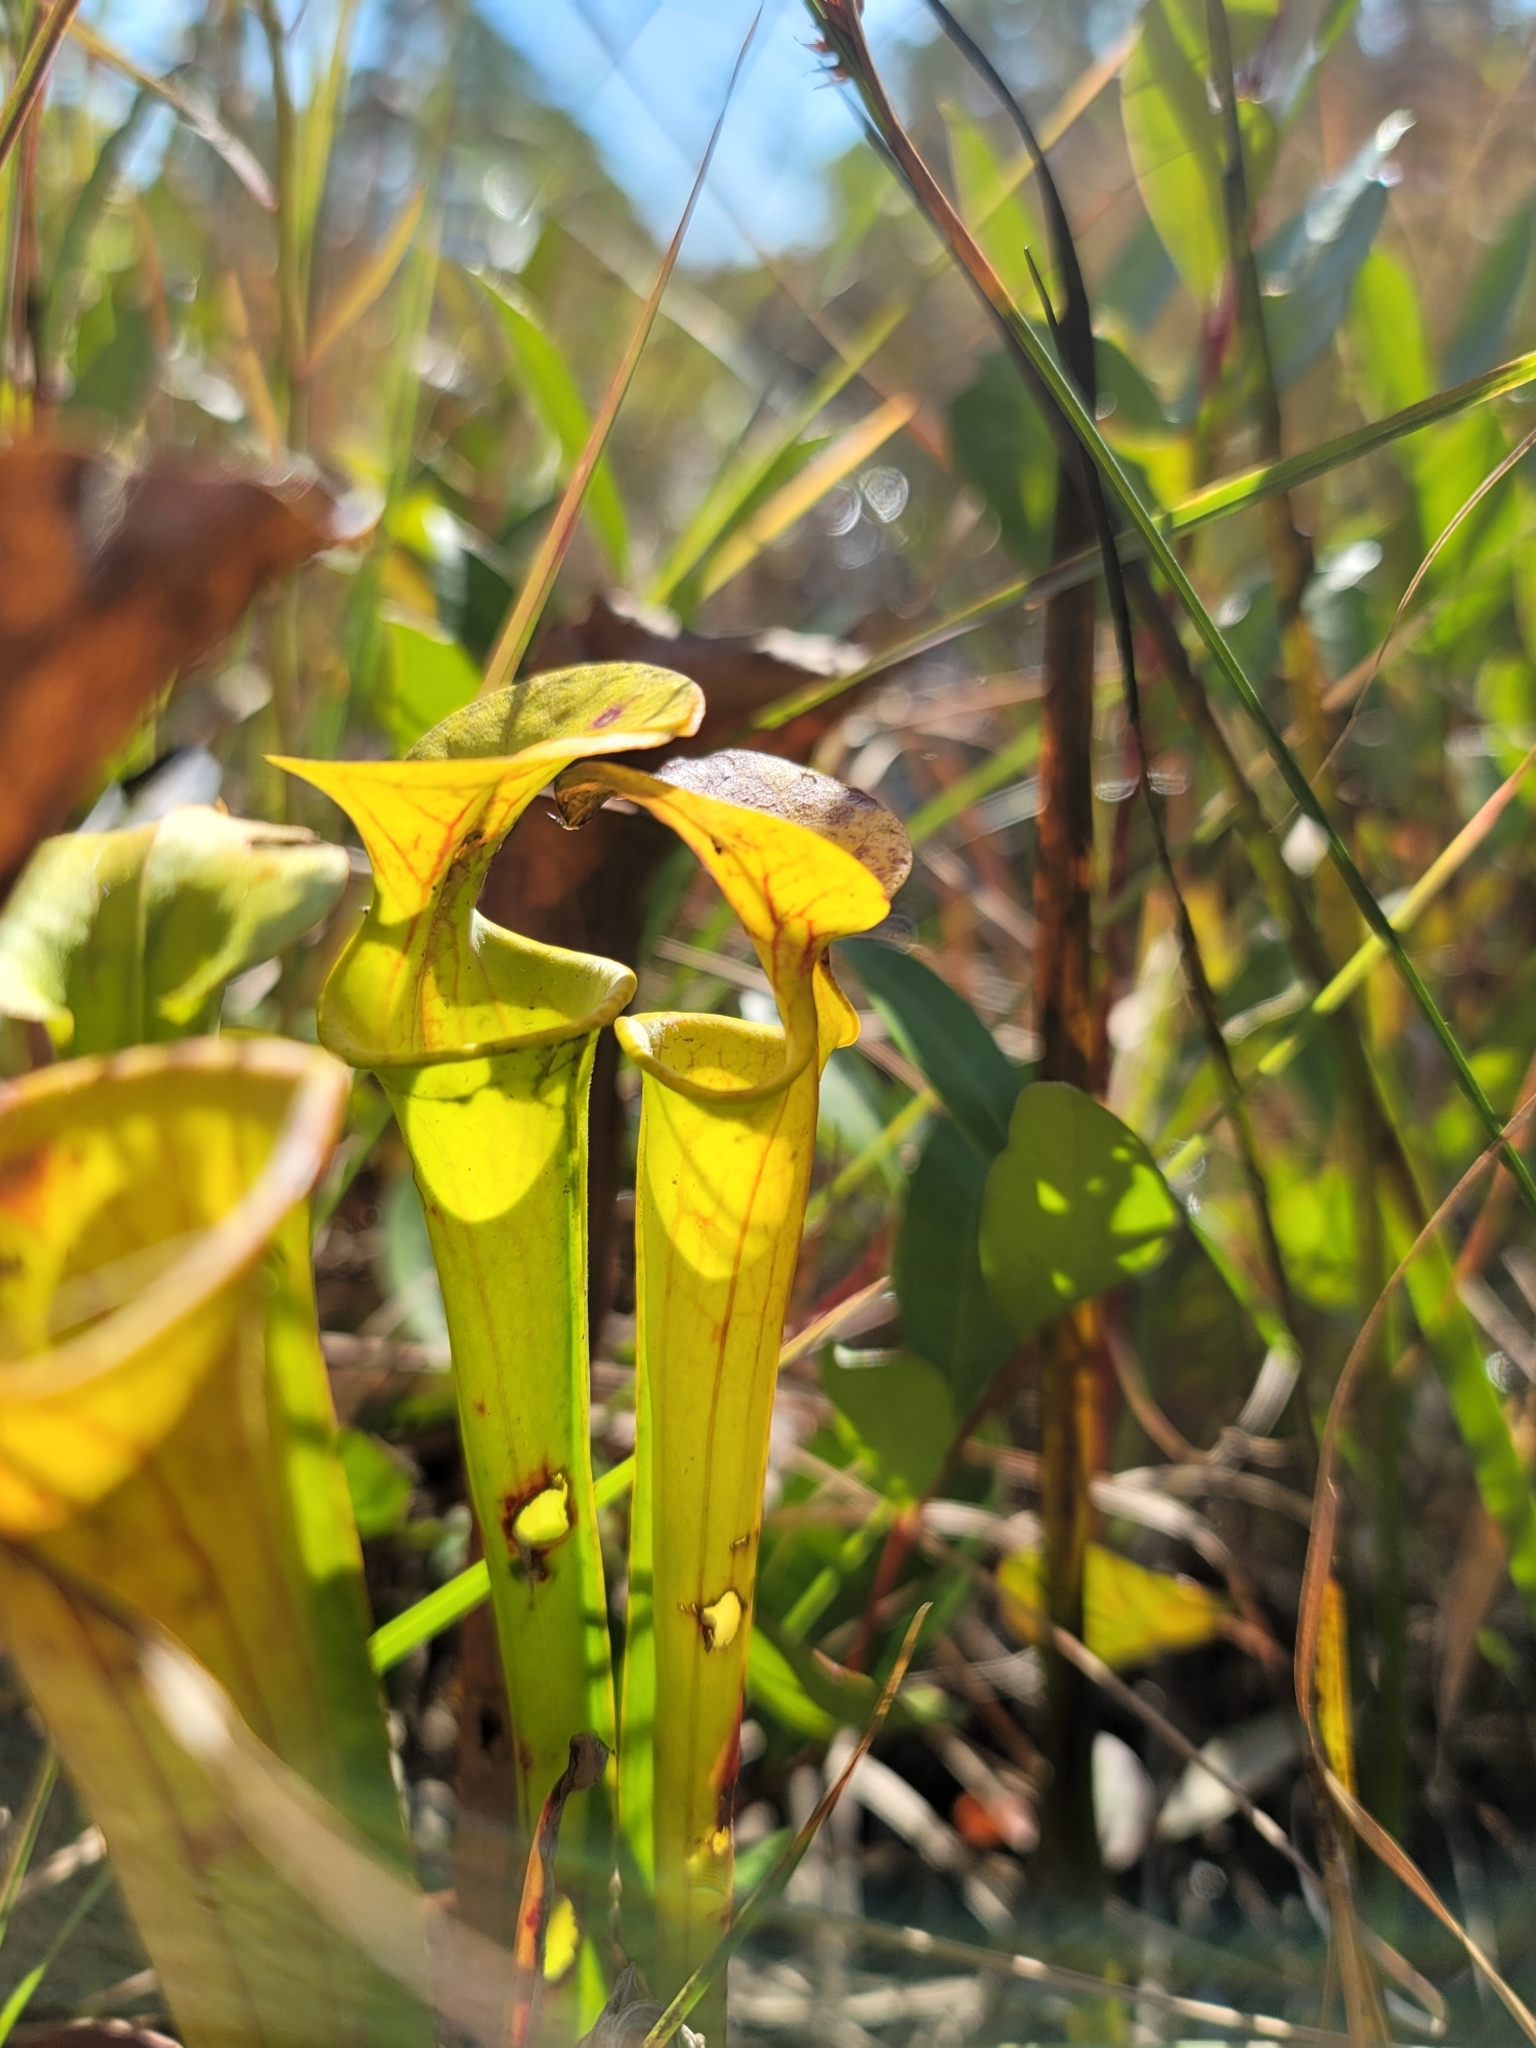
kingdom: Plantae
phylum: Tracheophyta
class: Magnoliopsida
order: Ericales
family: Sarraceniaceae
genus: Sarracenia
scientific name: Sarracenia flava
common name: Trumpets
